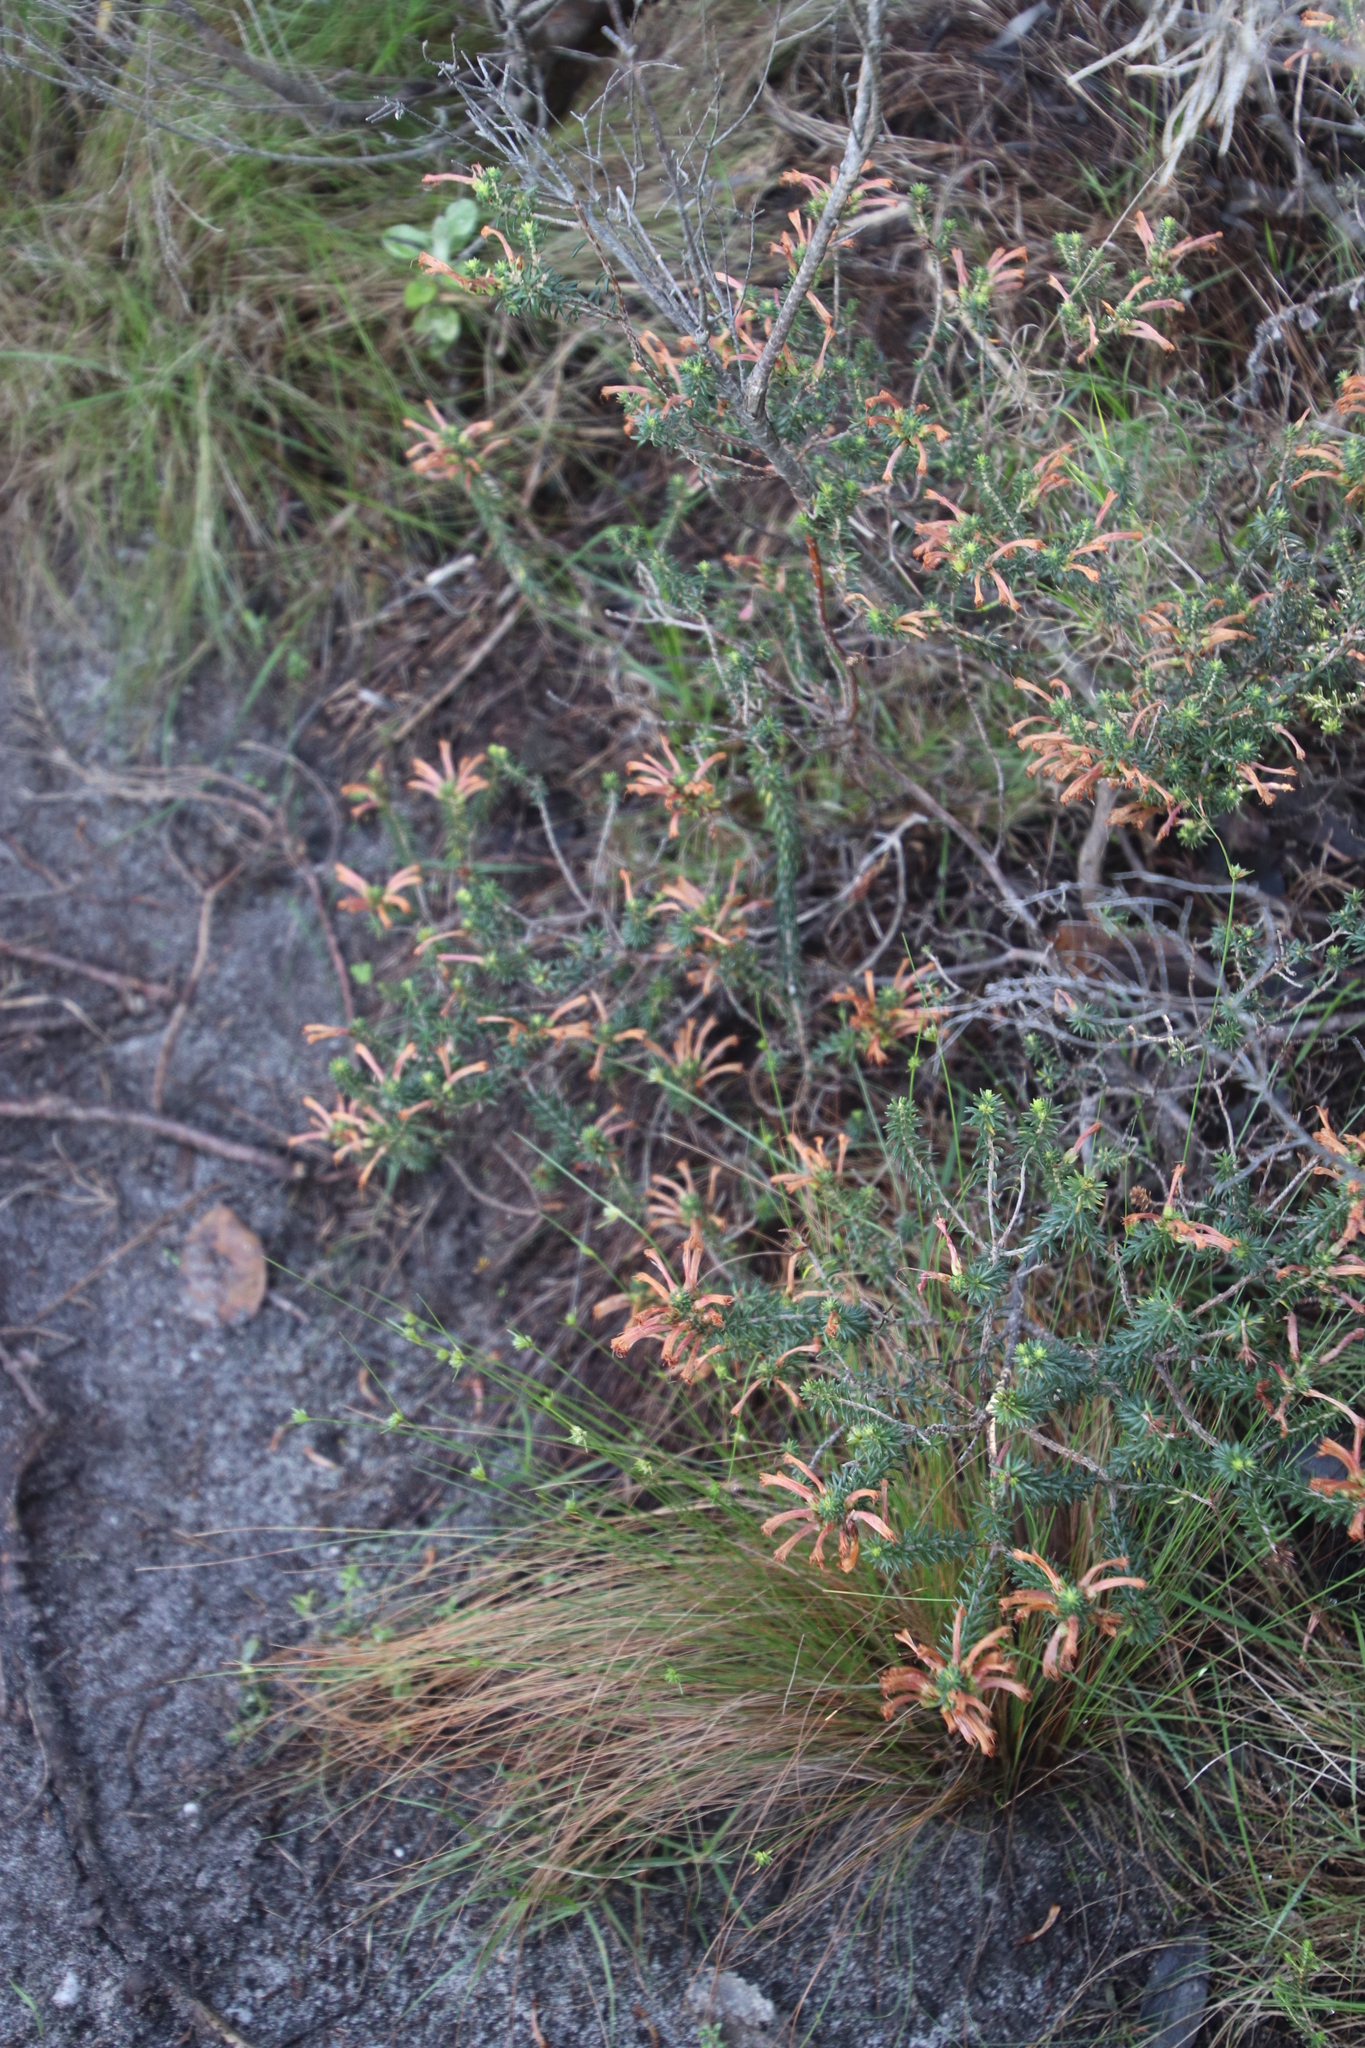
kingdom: Plantae
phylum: Tracheophyta
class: Magnoliopsida
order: Ericales
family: Ericaceae
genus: Erica
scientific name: Erica abietina
